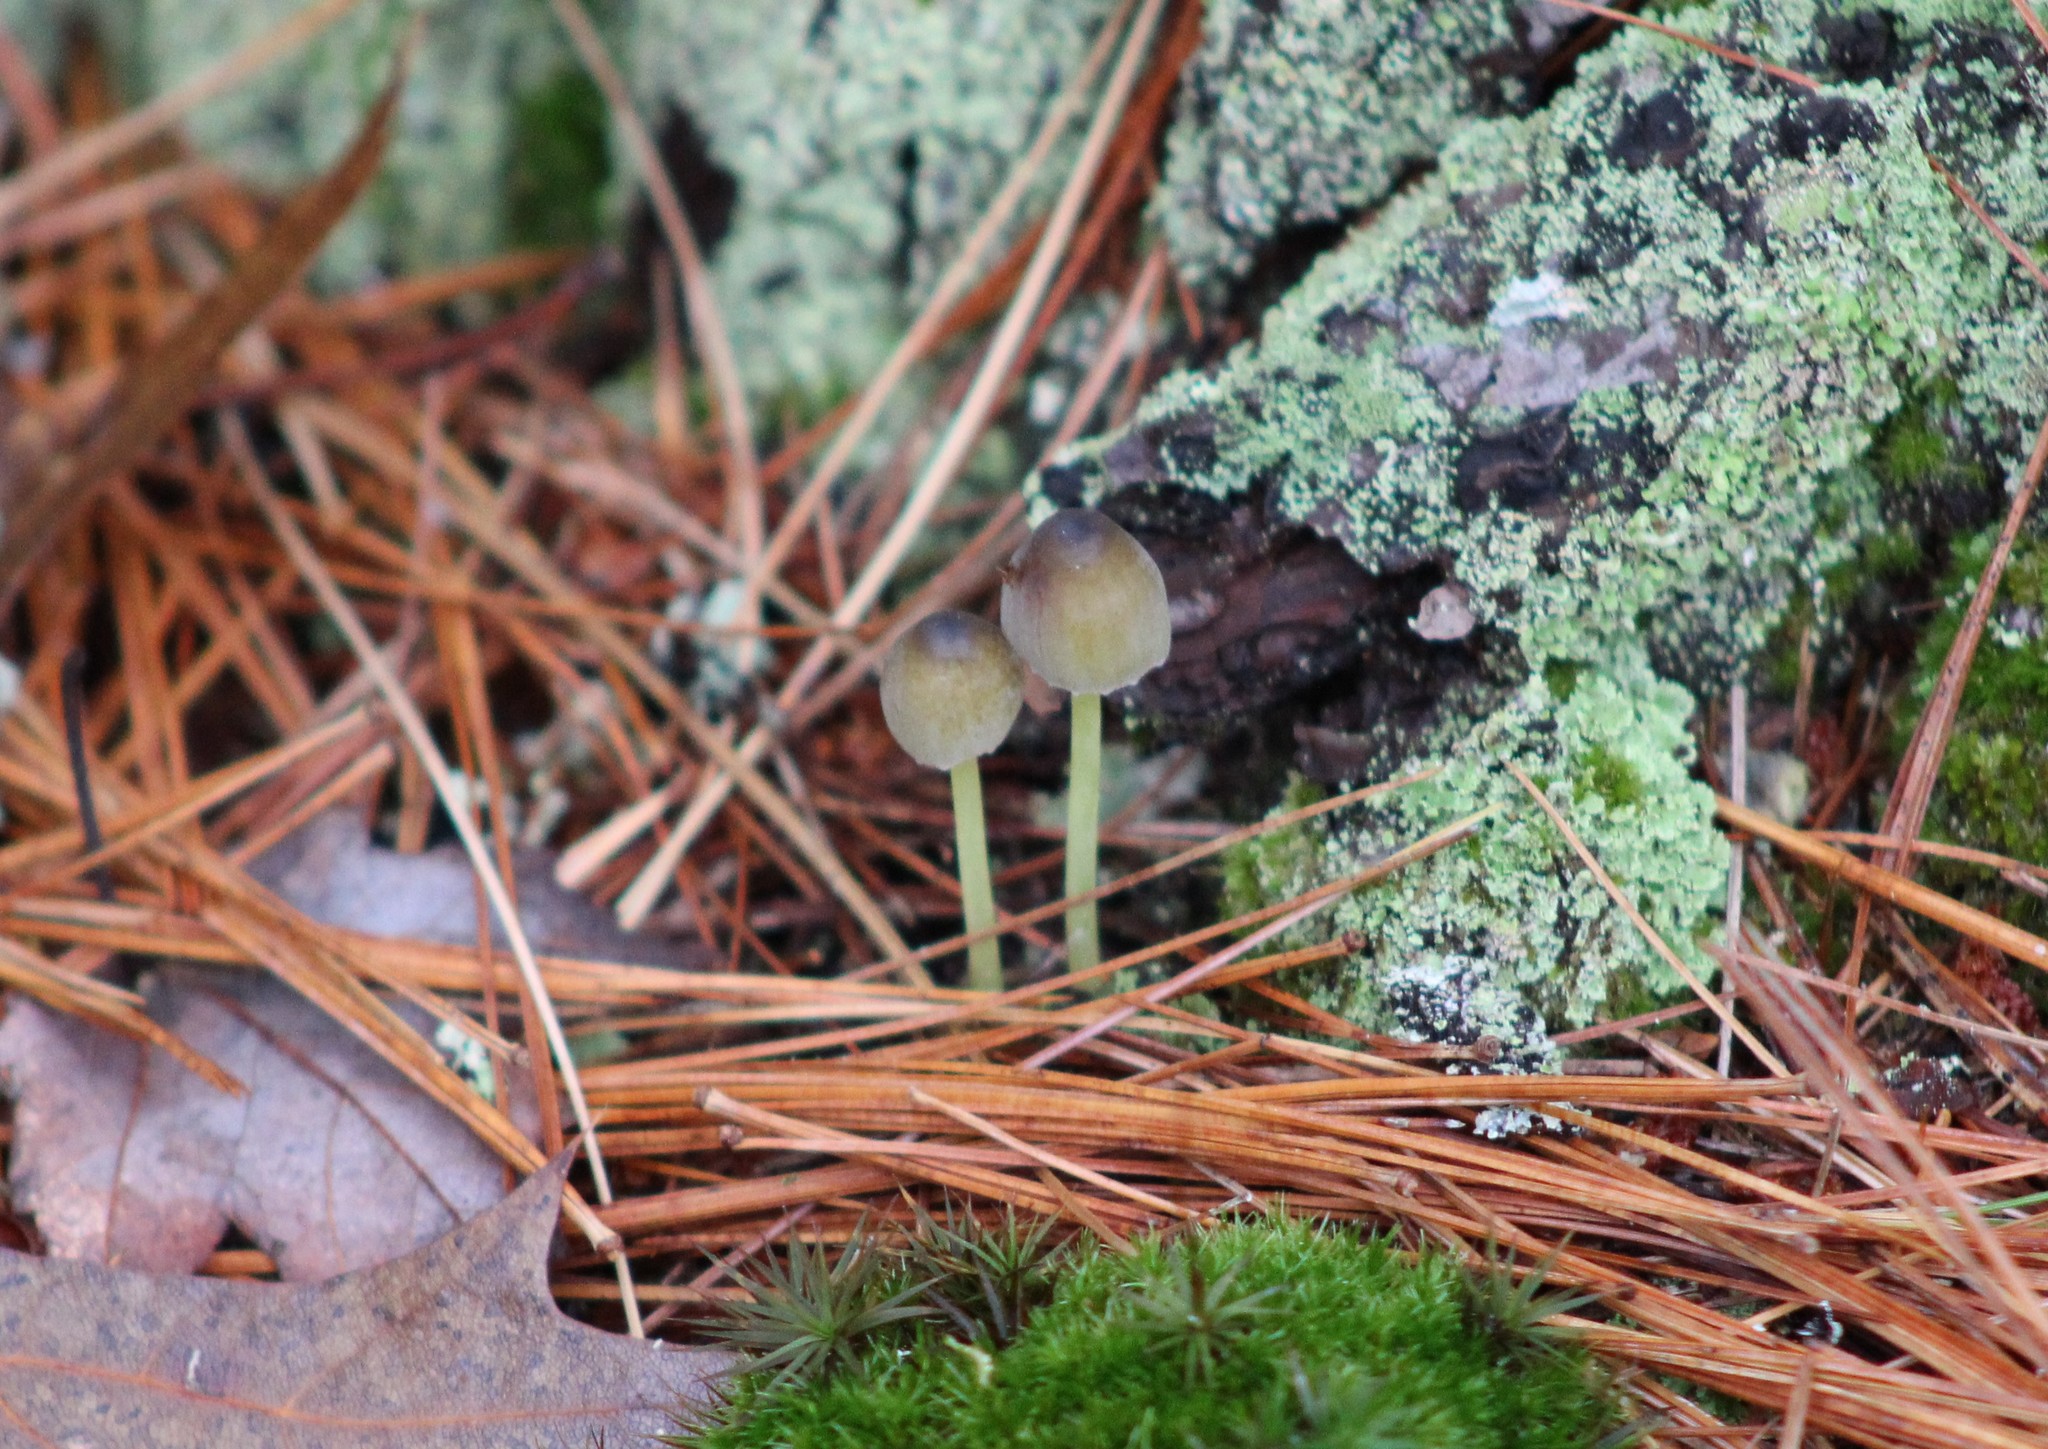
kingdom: Fungi
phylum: Basidiomycota
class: Agaricomycetes
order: Agaricales
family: Mycenaceae
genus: Mycena
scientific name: Mycena epipterygia
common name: Yellowleg bonnet
